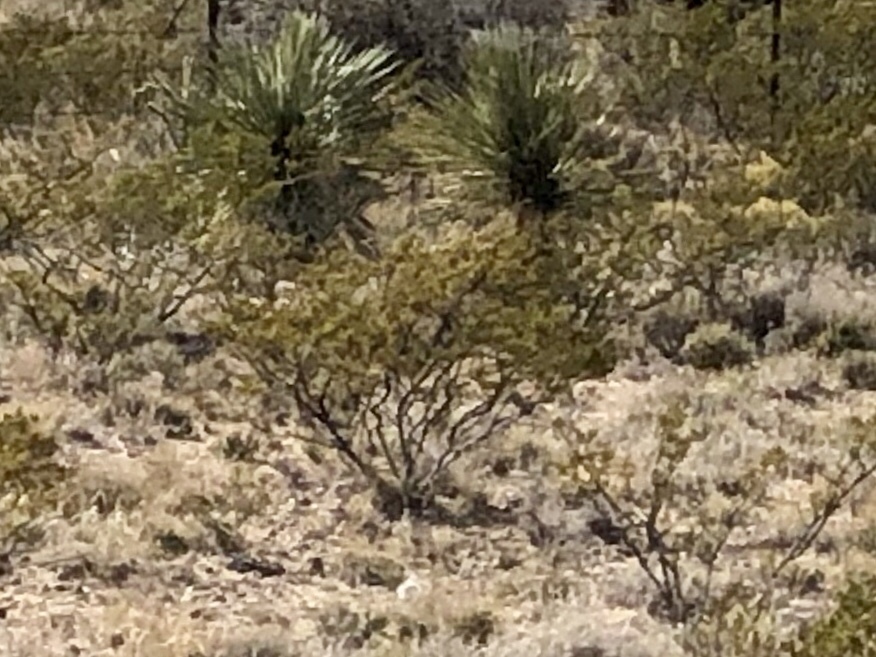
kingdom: Plantae
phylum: Tracheophyta
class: Magnoliopsida
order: Zygophyllales
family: Zygophyllaceae
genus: Larrea
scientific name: Larrea tridentata
